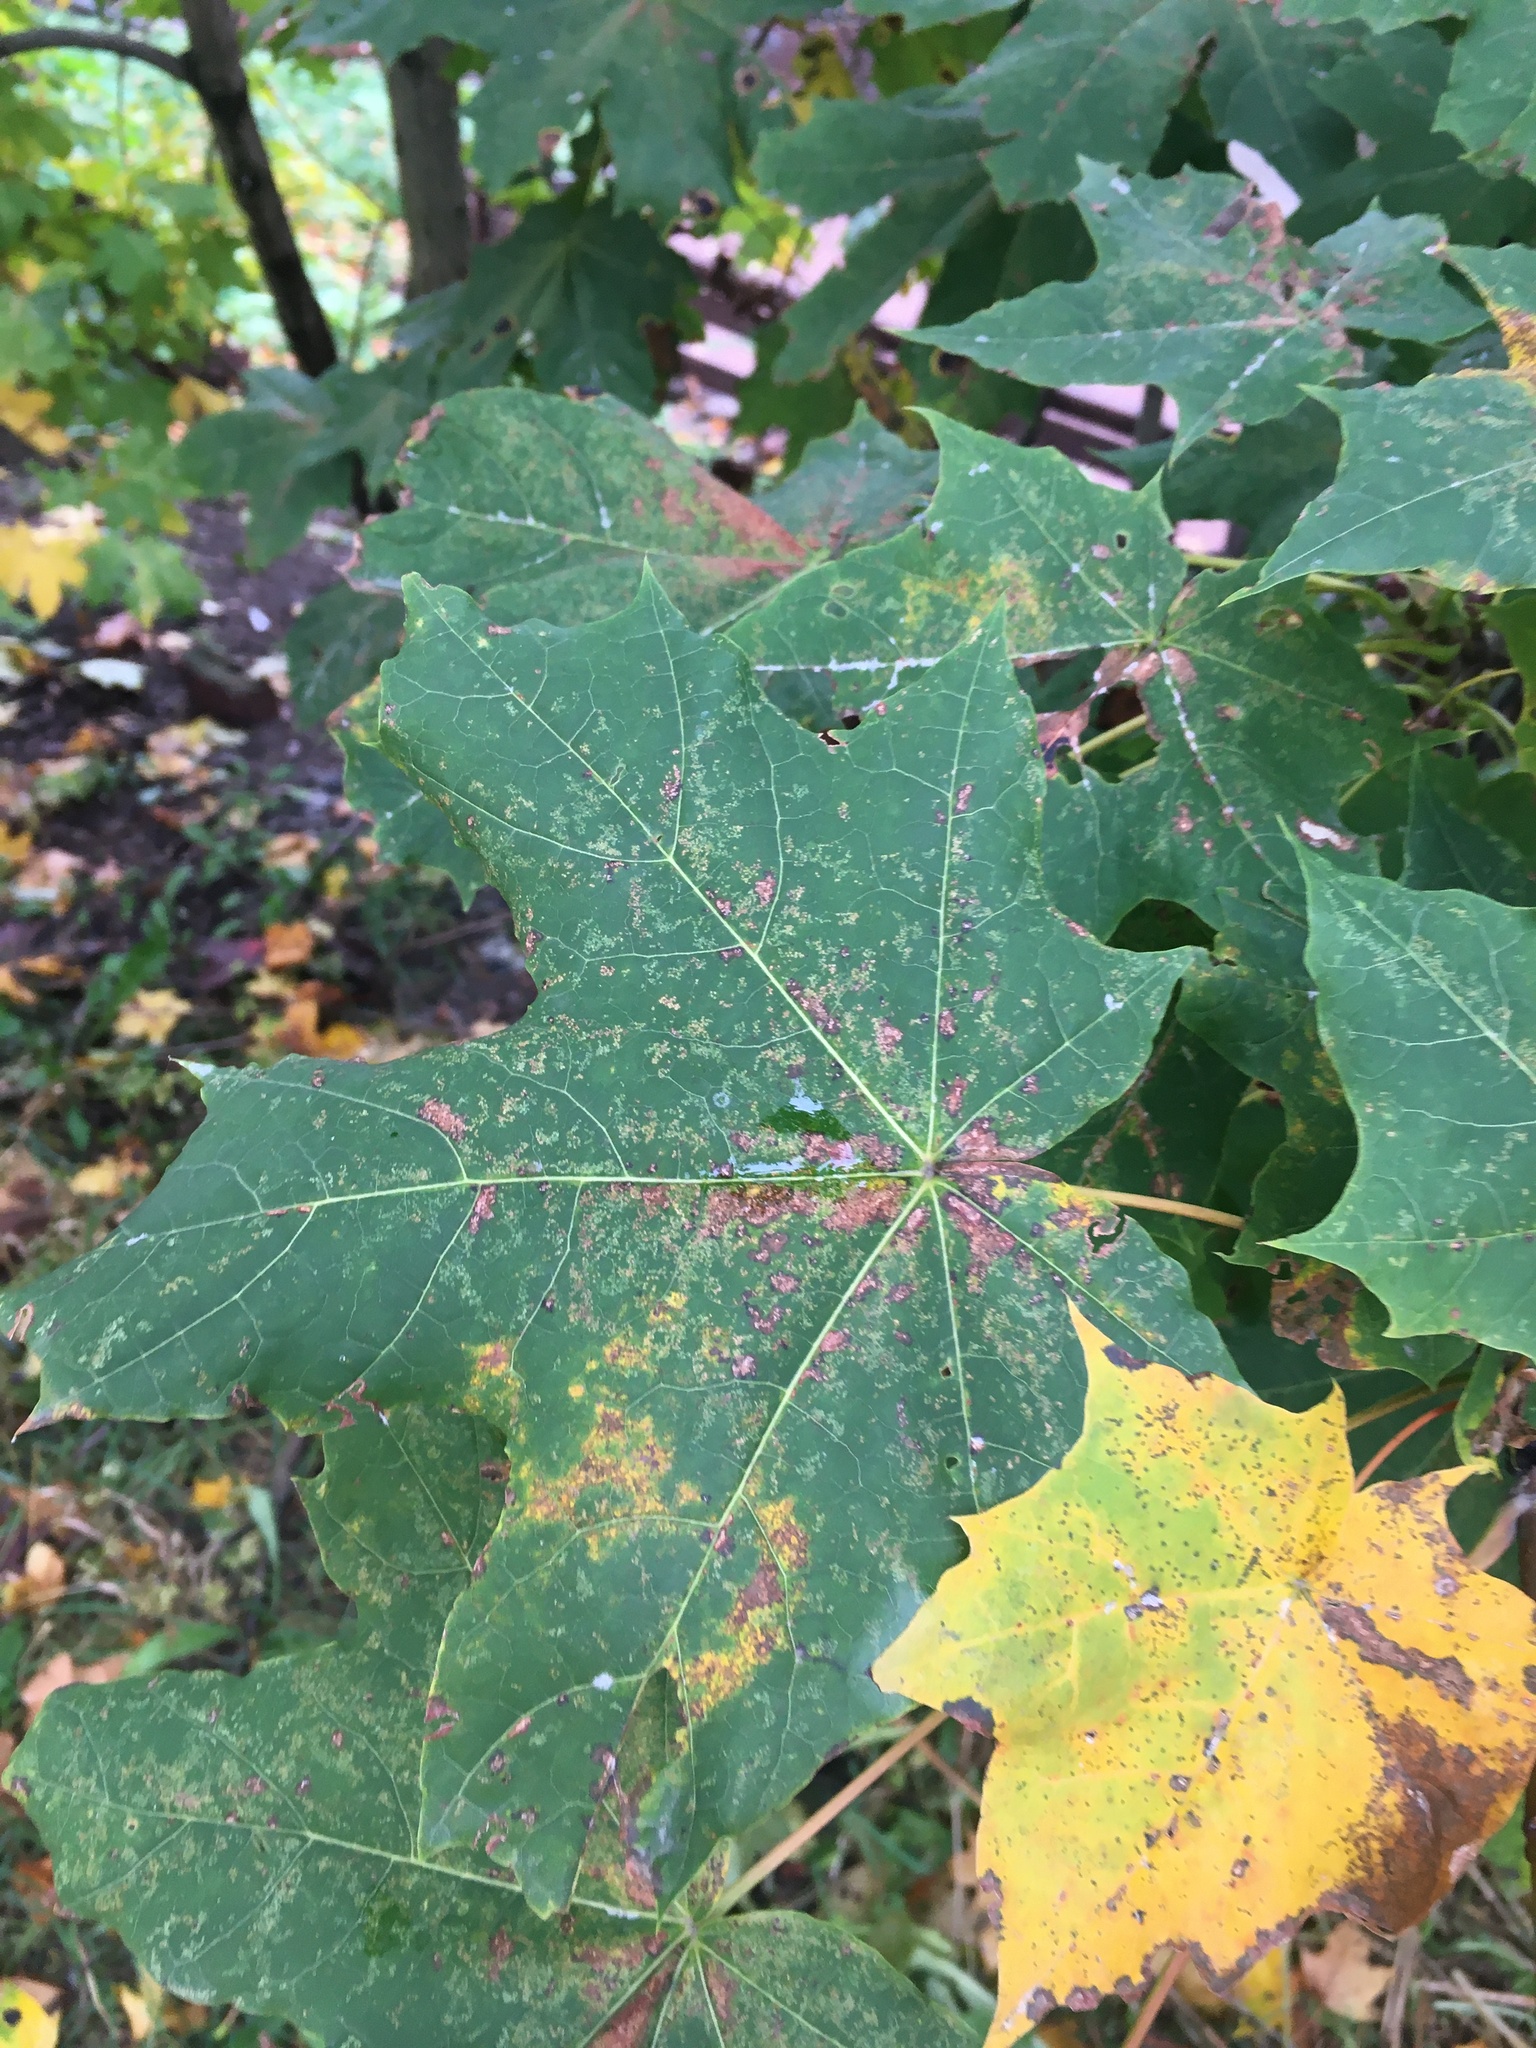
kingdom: Plantae
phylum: Tracheophyta
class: Magnoliopsida
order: Sapindales
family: Sapindaceae
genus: Acer
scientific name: Acer platanoides
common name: Norway maple
